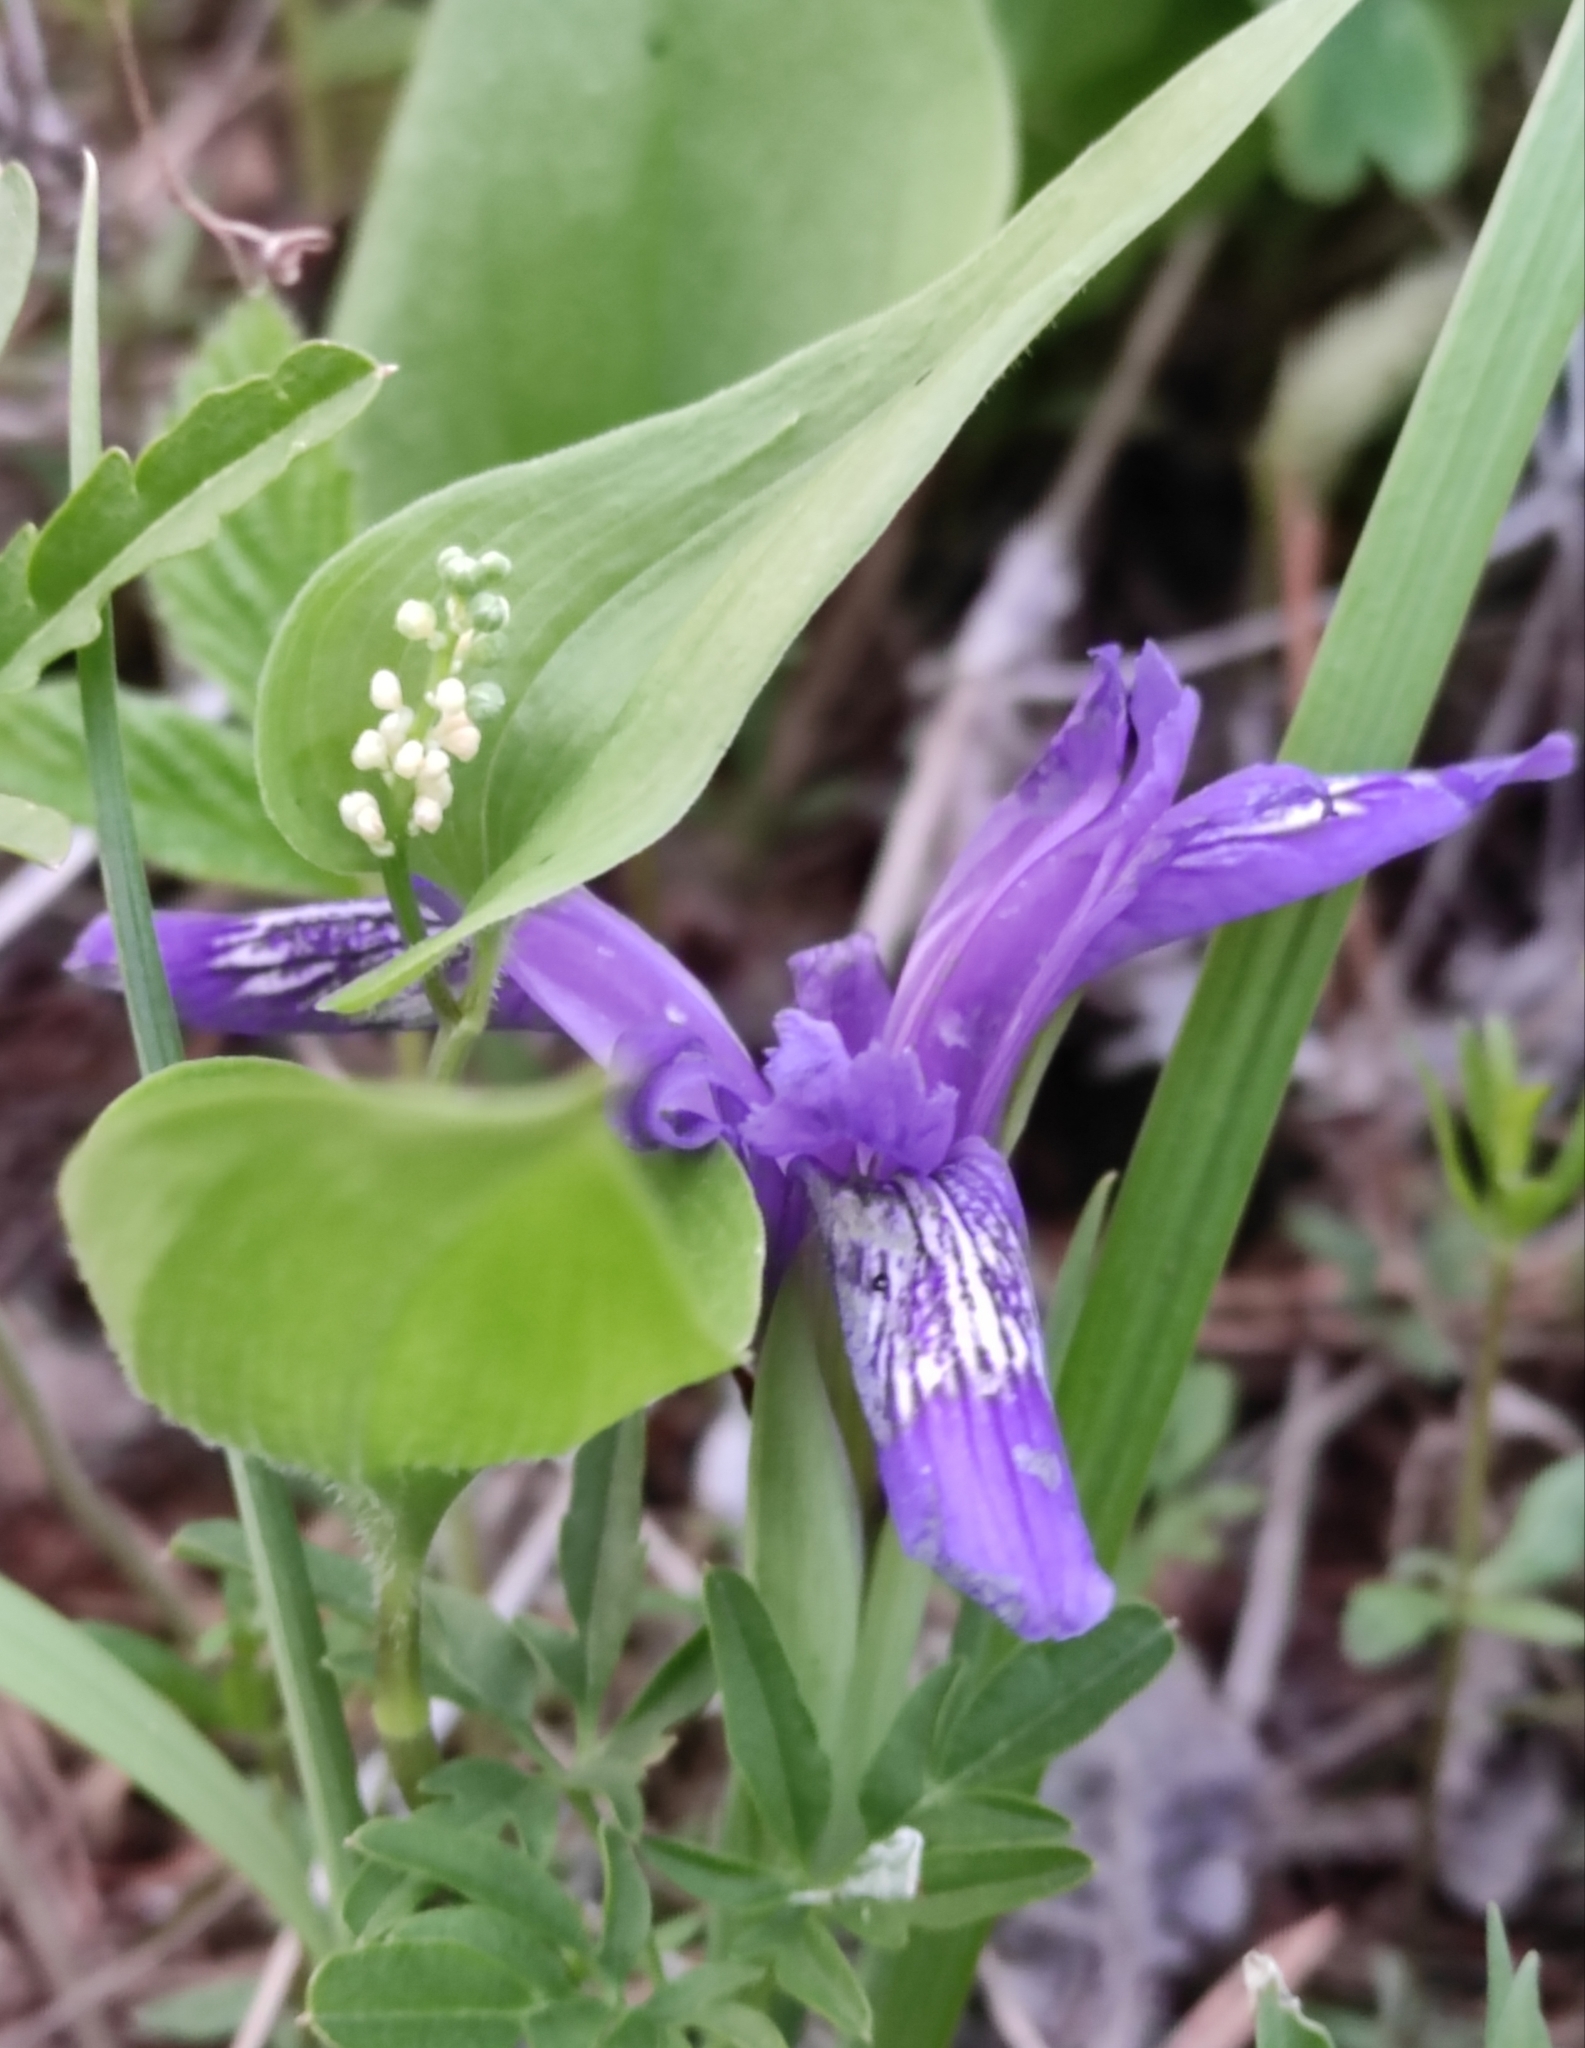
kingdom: Plantae
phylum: Tracheophyta
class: Liliopsida
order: Asparagales
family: Iridaceae
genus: Iris
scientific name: Iris ruthenica
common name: Purple-bract iris
